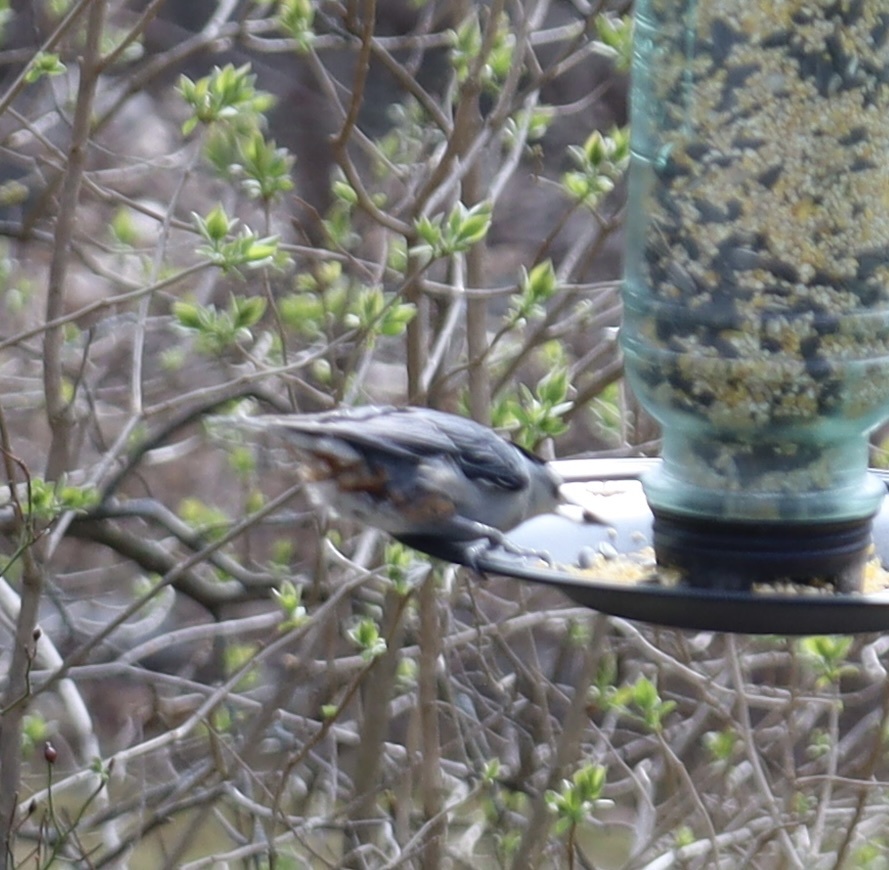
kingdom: Animalia
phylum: Chordata
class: Aves
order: Passeriformes
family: Sittidae
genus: Sitta
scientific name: Sitta carolinensis
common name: White-breasted nuthatch
